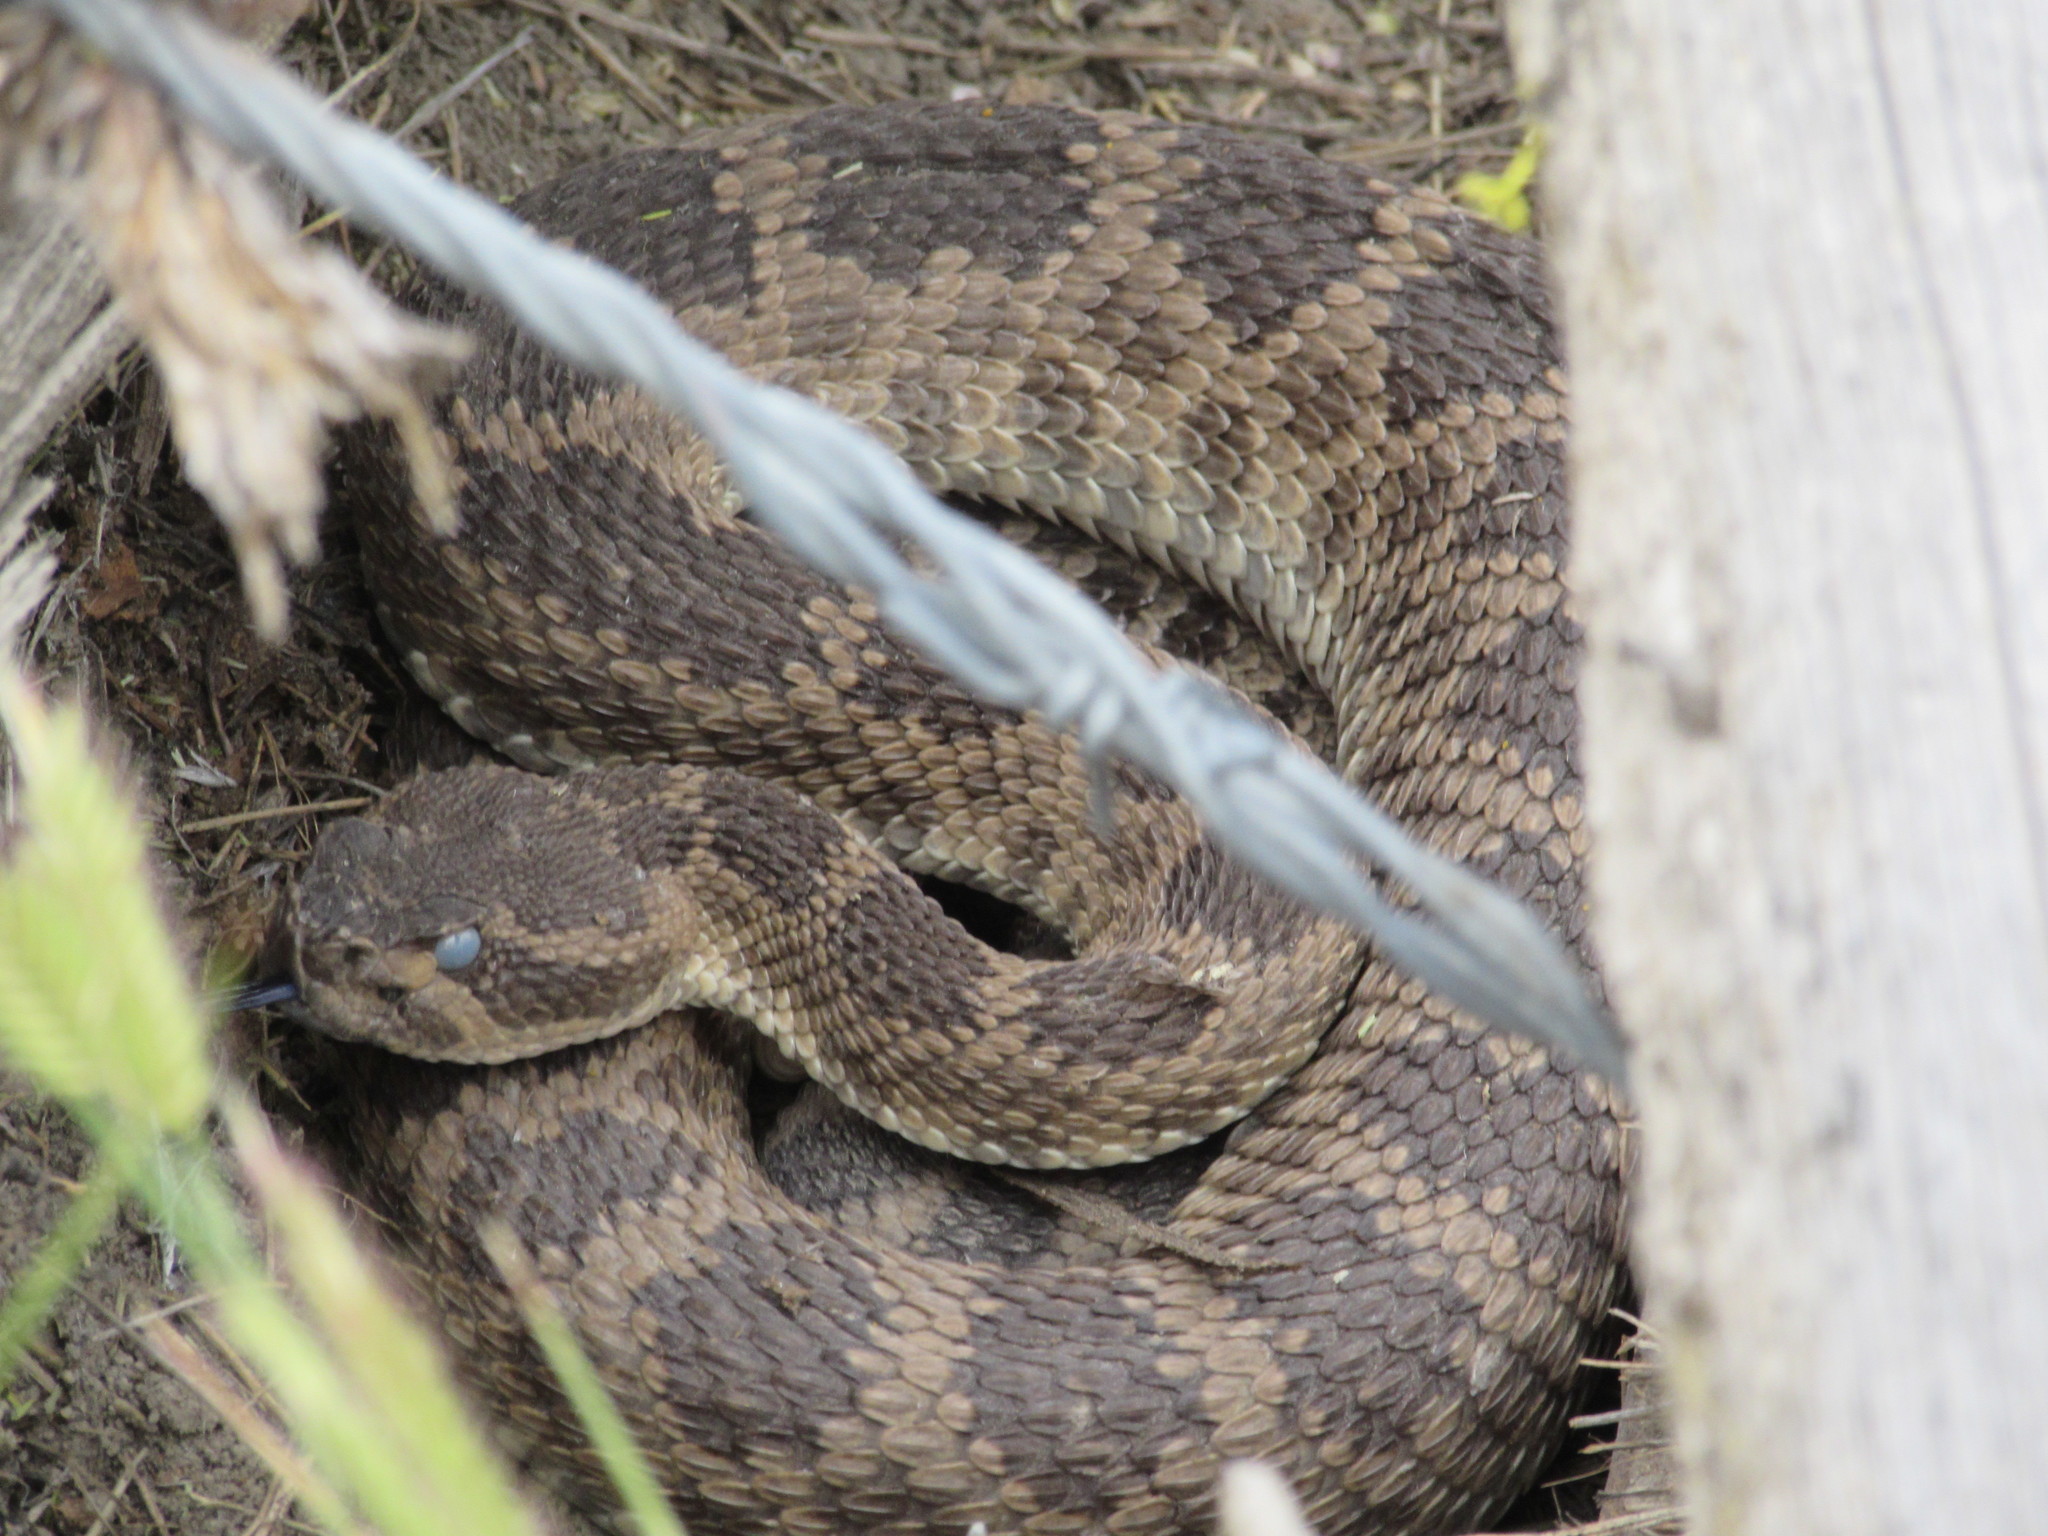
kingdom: Animalia
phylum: Chordata
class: Squamata
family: Viperidae
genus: Crotalus
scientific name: Crotalus oreganus
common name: Abyssus
